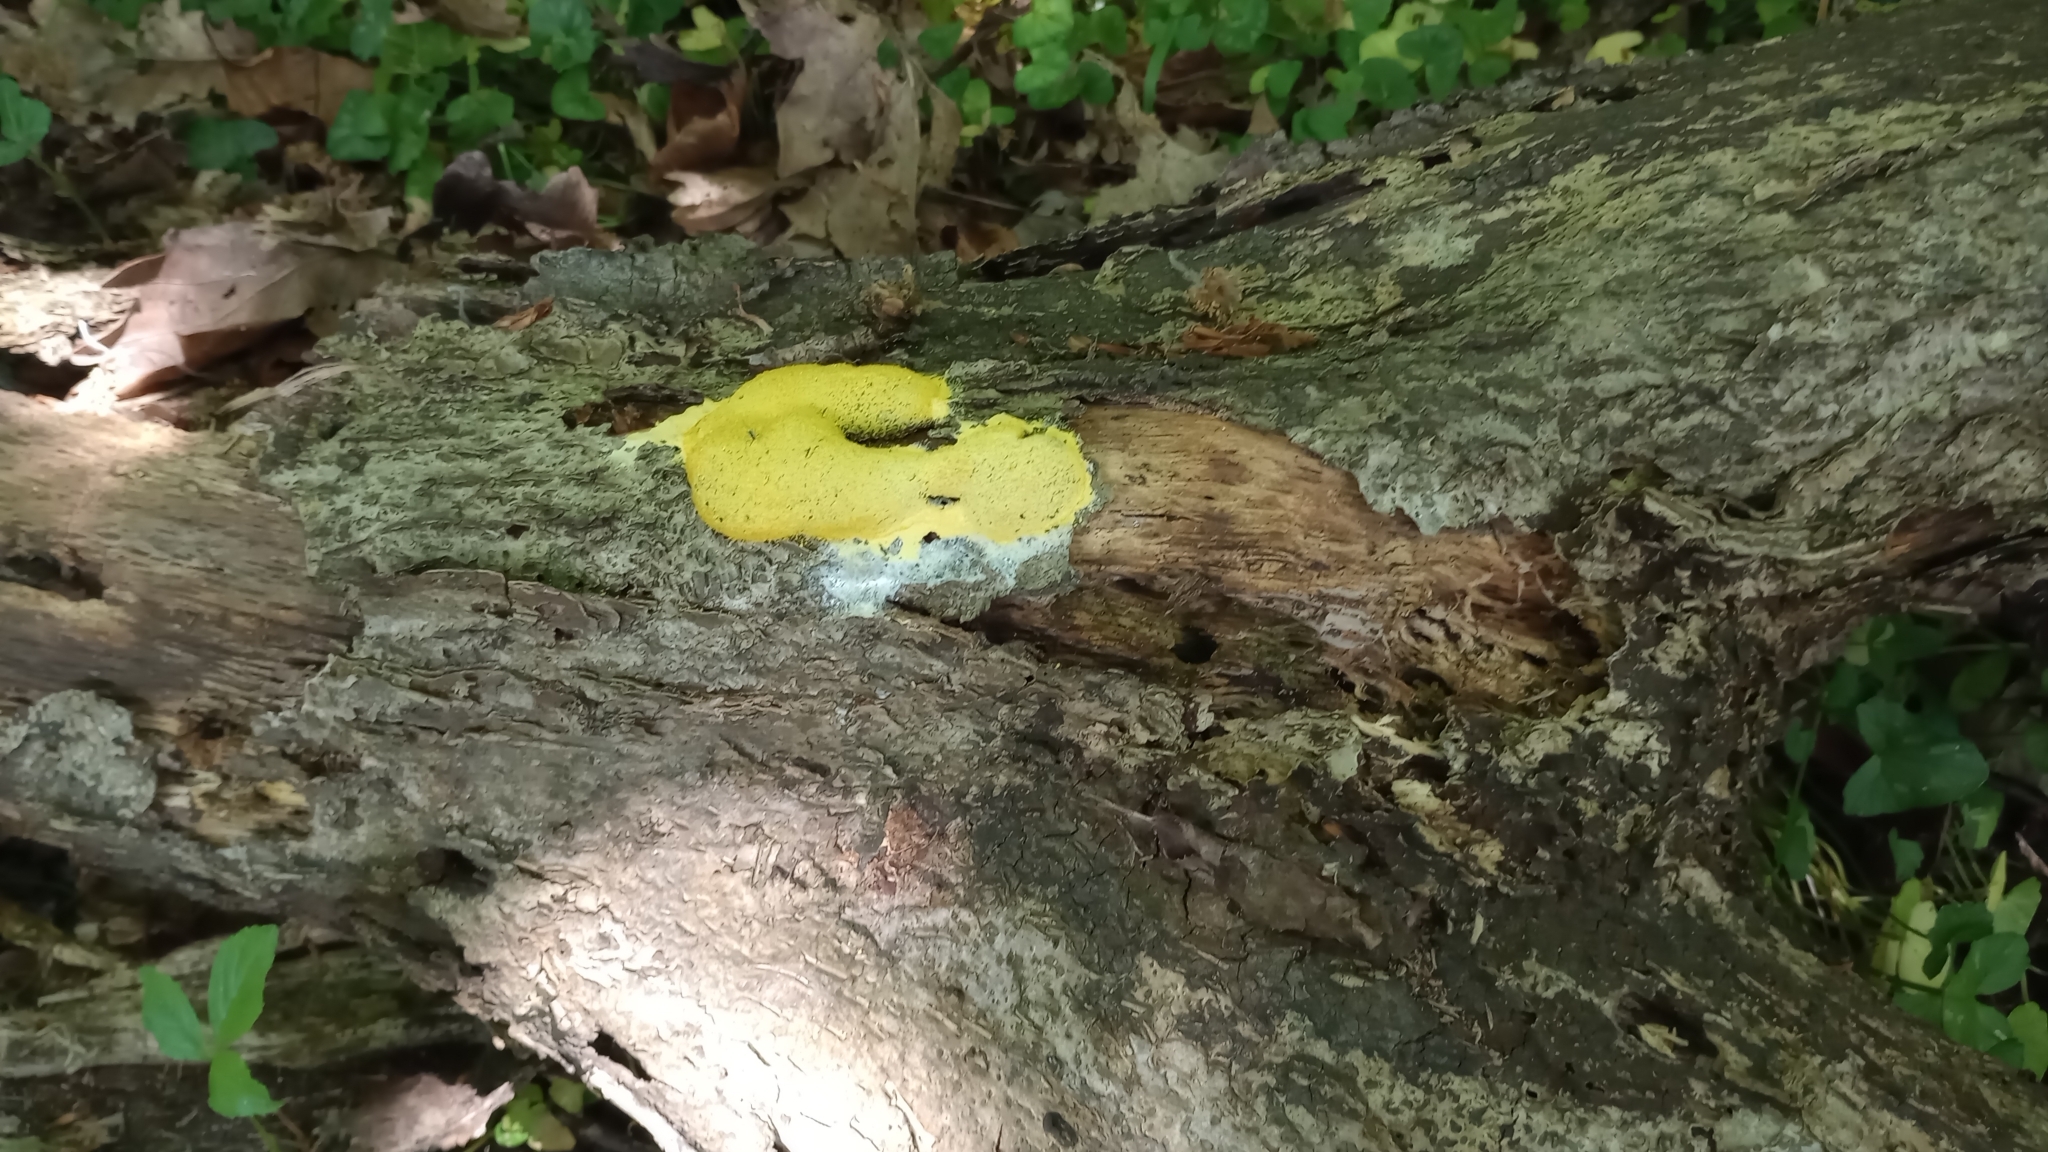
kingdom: Protozoa
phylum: Mycetozoa
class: Myxomycetes
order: Physarales
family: Physaraceae
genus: Fuligo
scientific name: Fuligo septica
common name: Dog vomit slime mold
